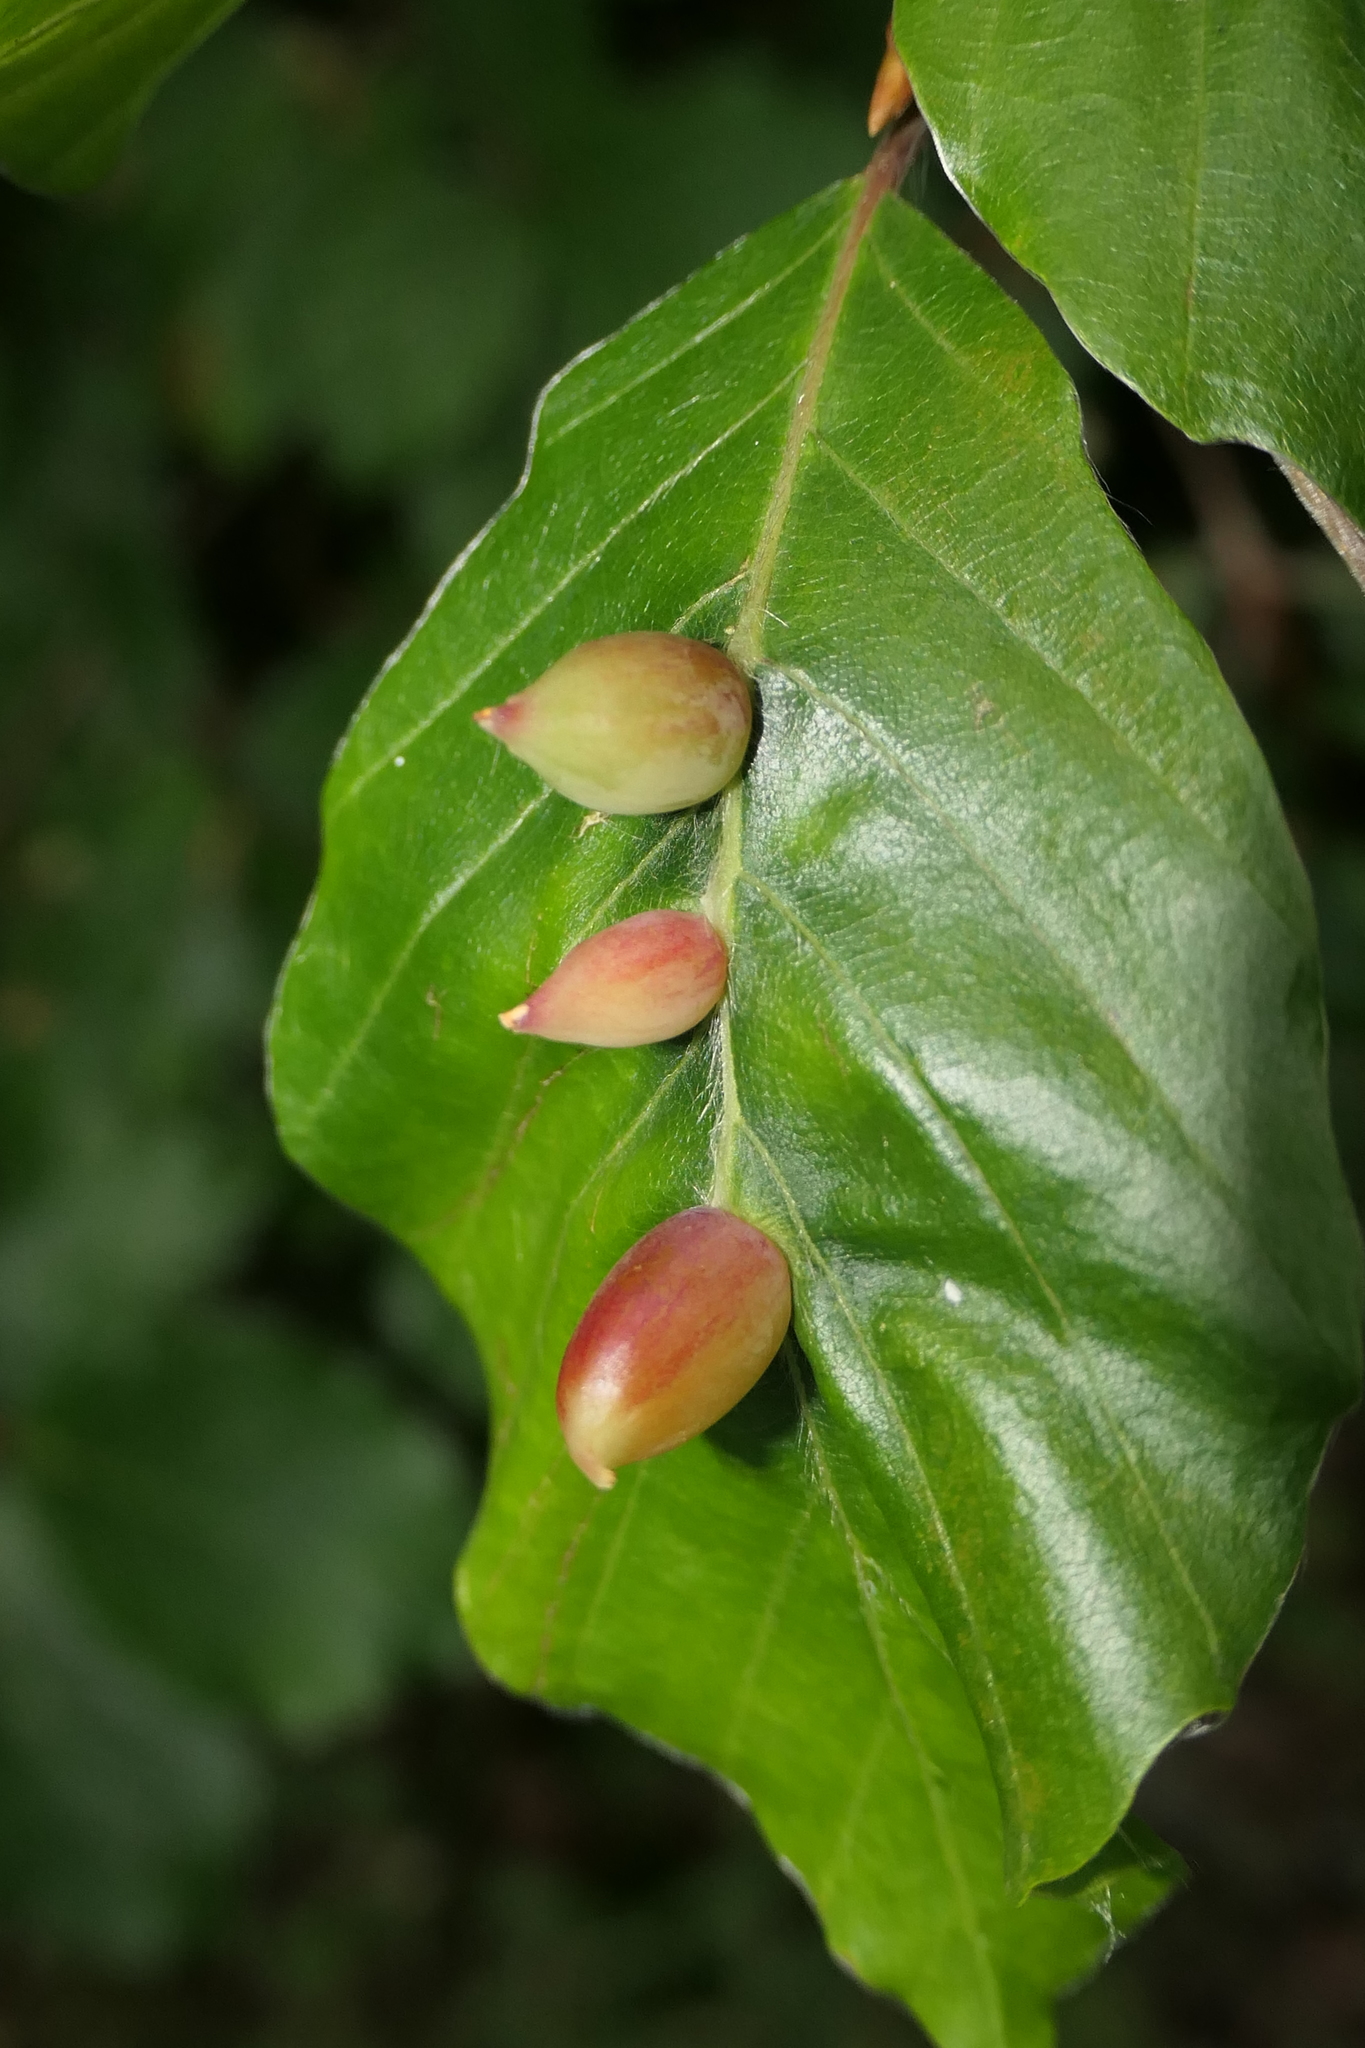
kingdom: Animalia
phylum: Arthropoda
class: Insecta
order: Diptera
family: Cecidomyiidae
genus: Mikiola
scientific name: Mikiola fagi
